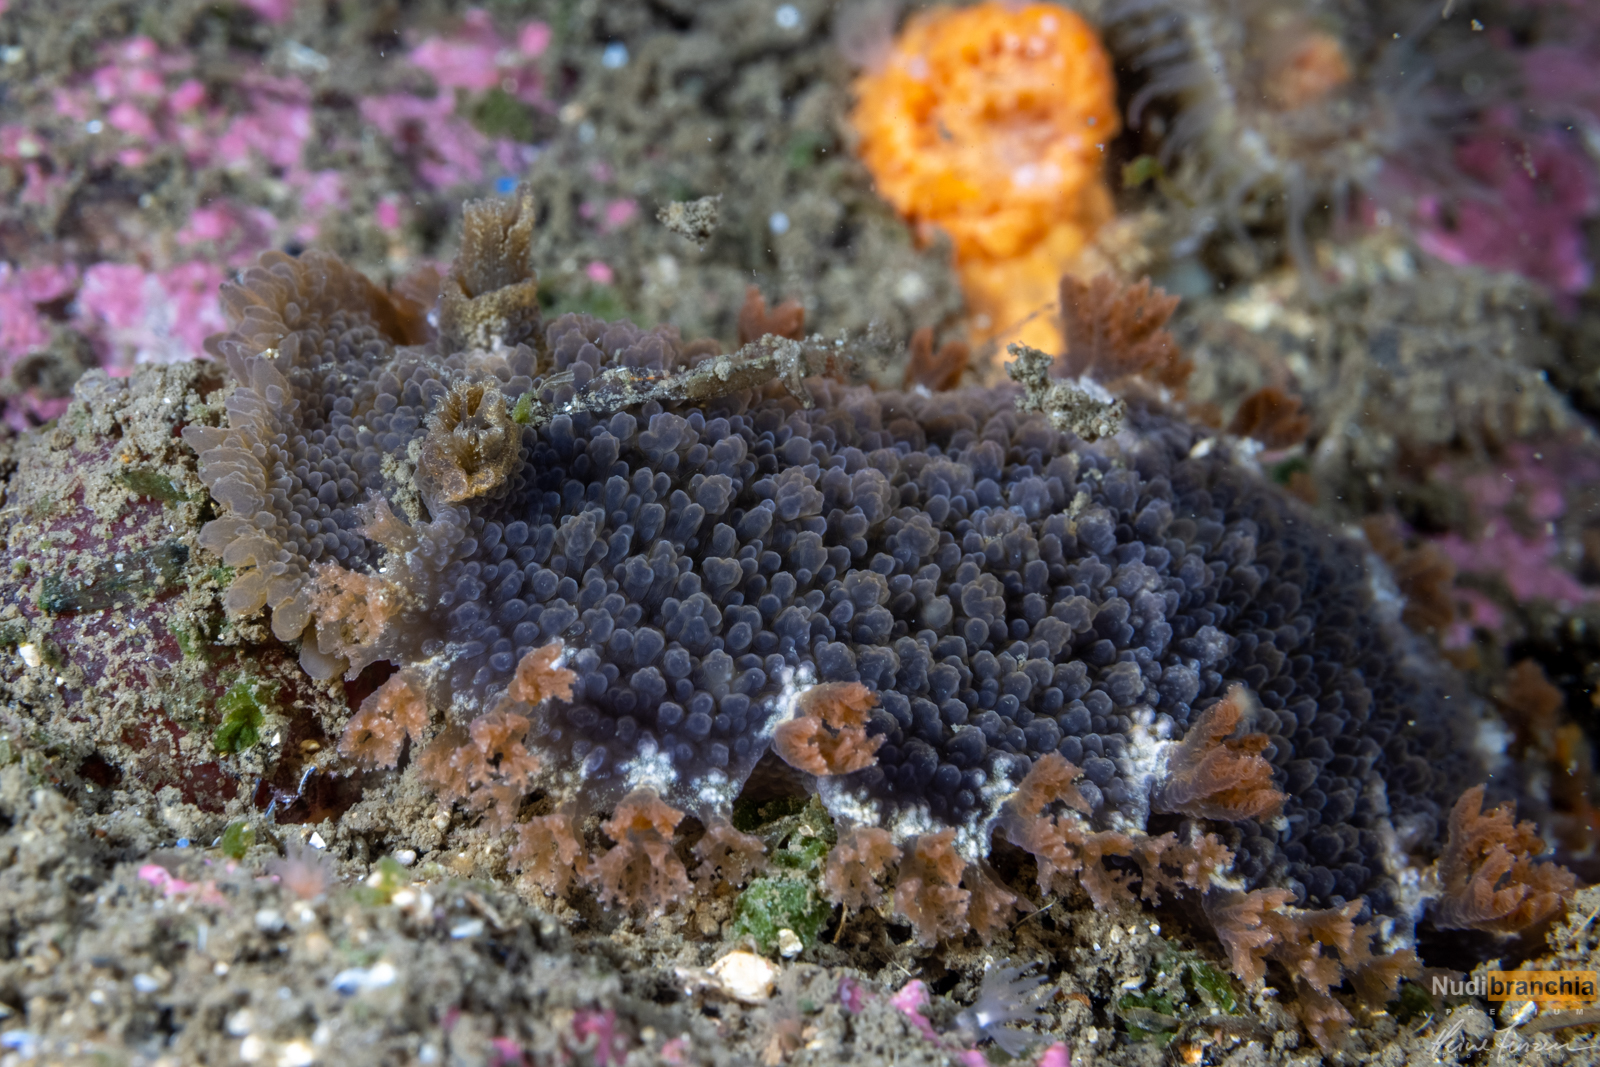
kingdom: Animalia
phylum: Mollusca
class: Gastropoda
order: Nudibranchia
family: Tritoniidae
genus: Tritonia
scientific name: Tritonia hombergii
